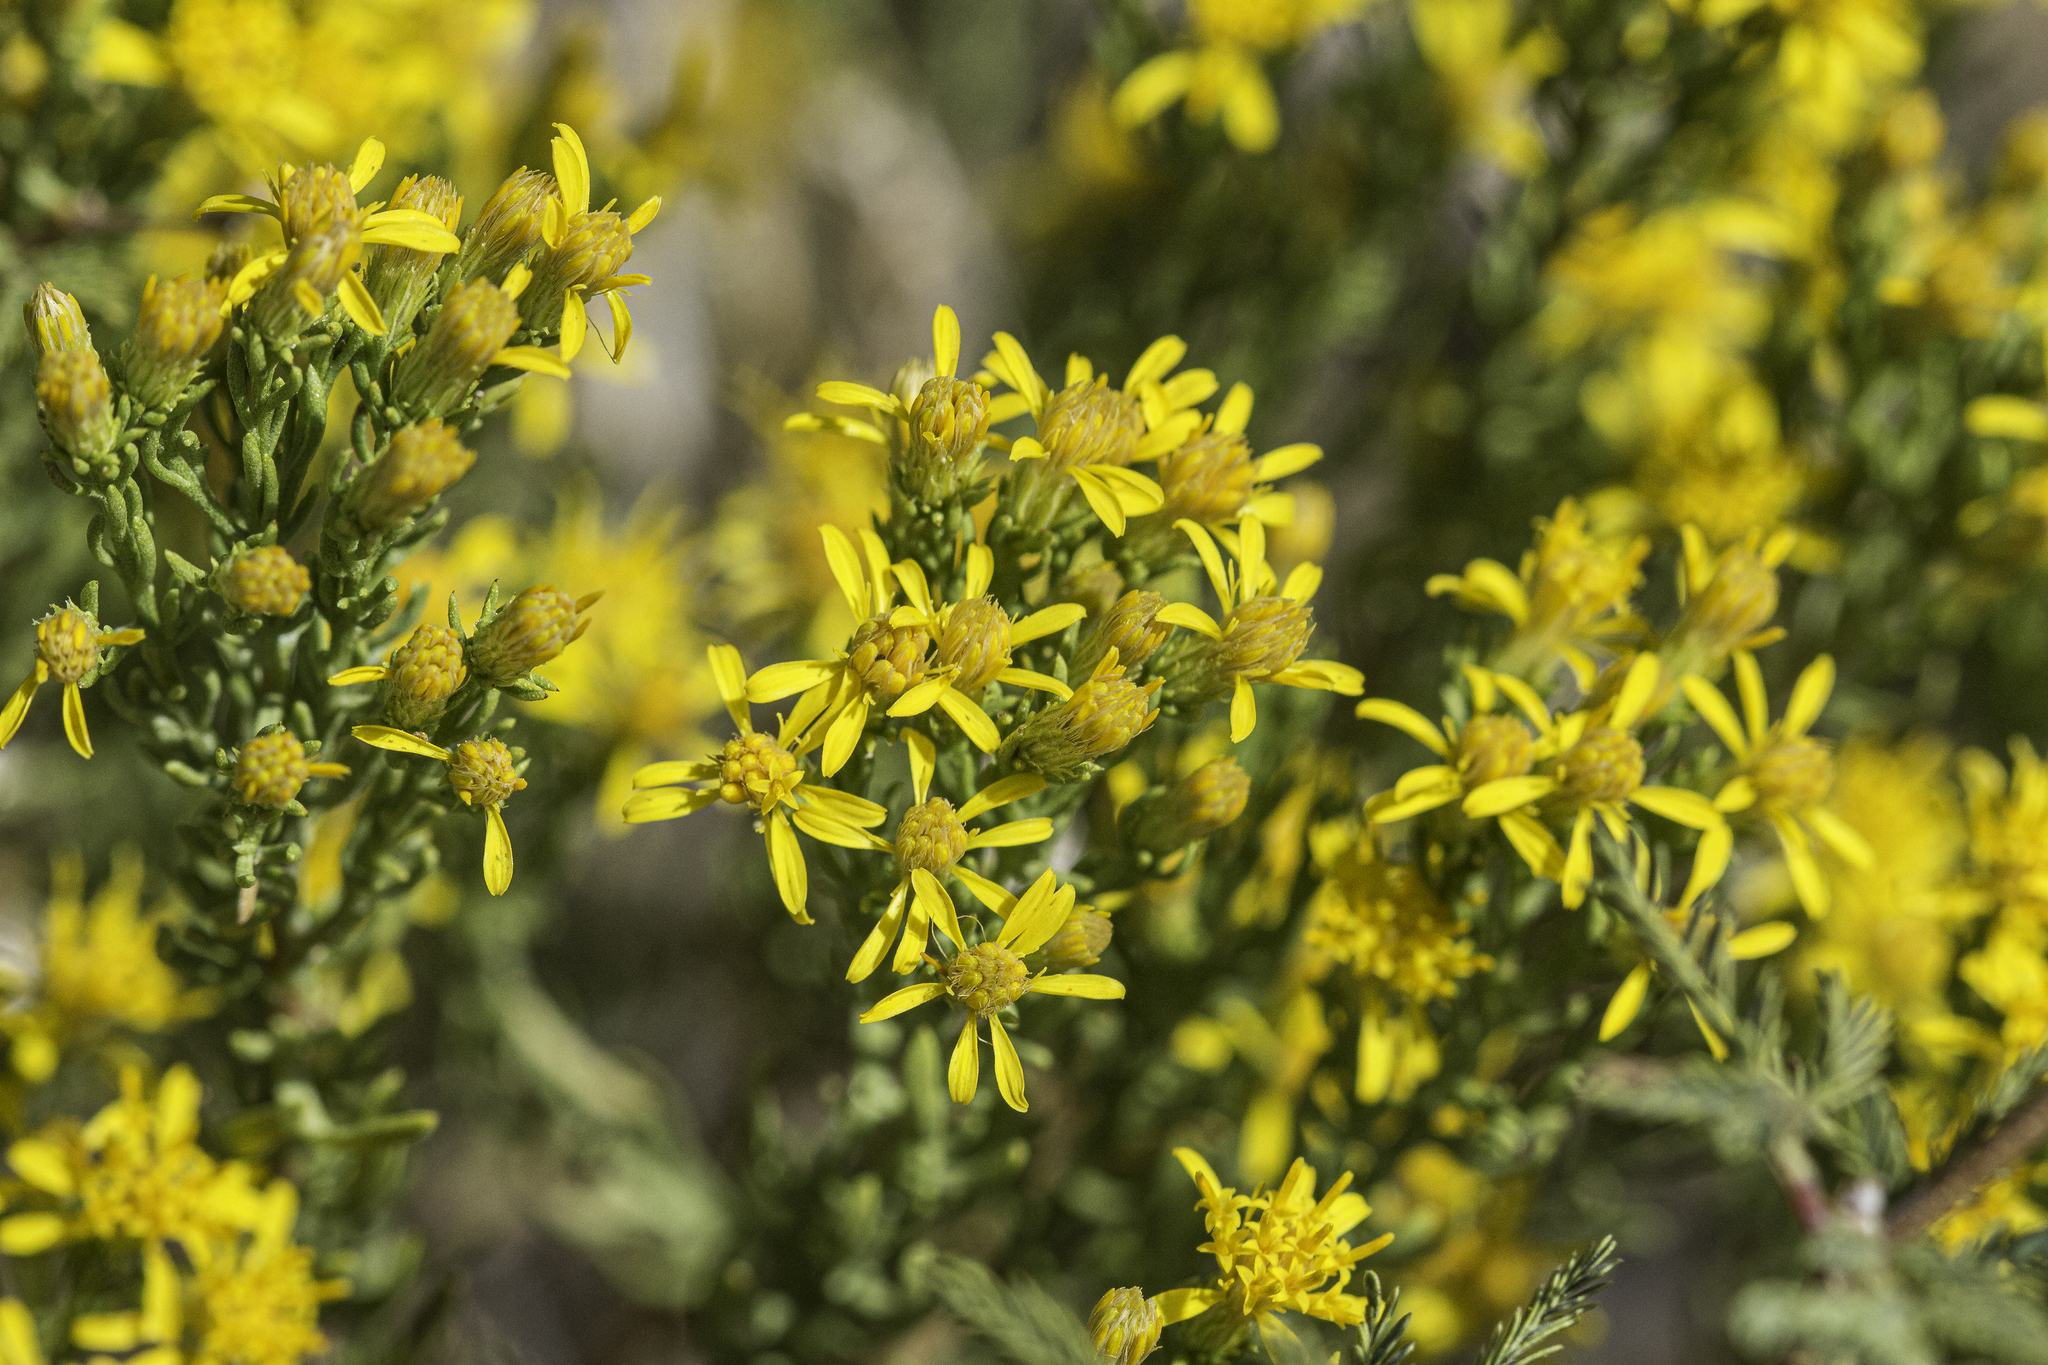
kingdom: Plantae
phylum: Tracheophyta
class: Magnoliopsida
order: Asterales
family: Asteraceae
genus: Ericameria
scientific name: Ericameria laricifolia
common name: Turpentine-bush
